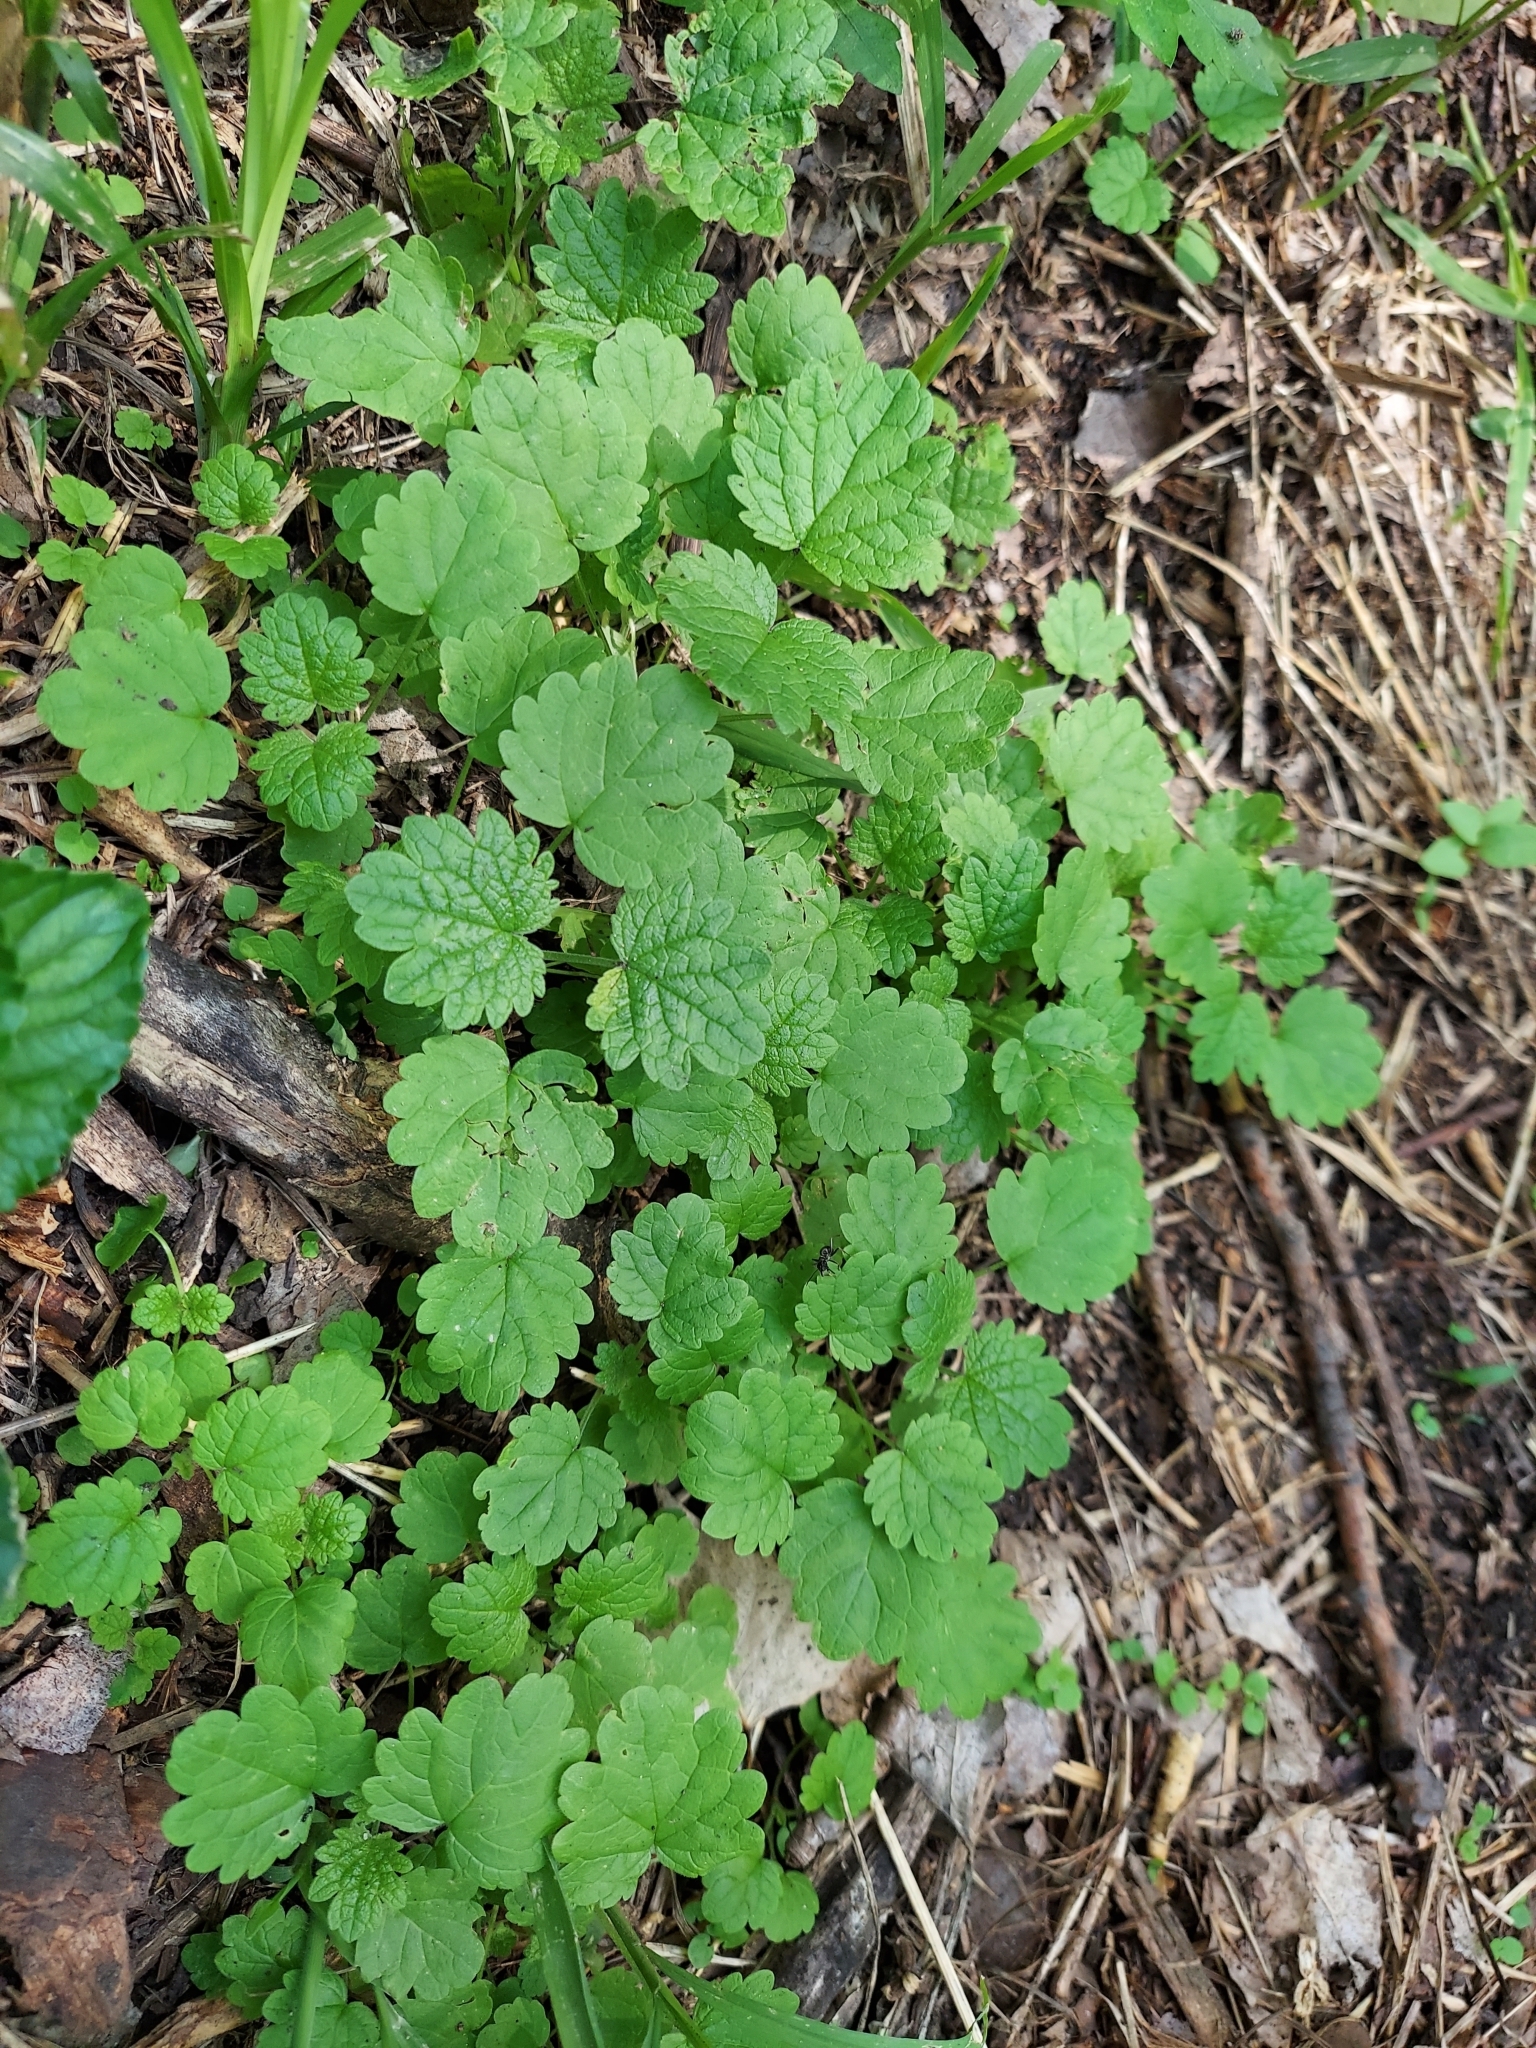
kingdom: Plantae
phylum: Tracheophyta
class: Magnoliopsida
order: Lamiales
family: Lamiaceae
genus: Leonurus
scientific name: Leonurus cardiaca
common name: Motherwort
